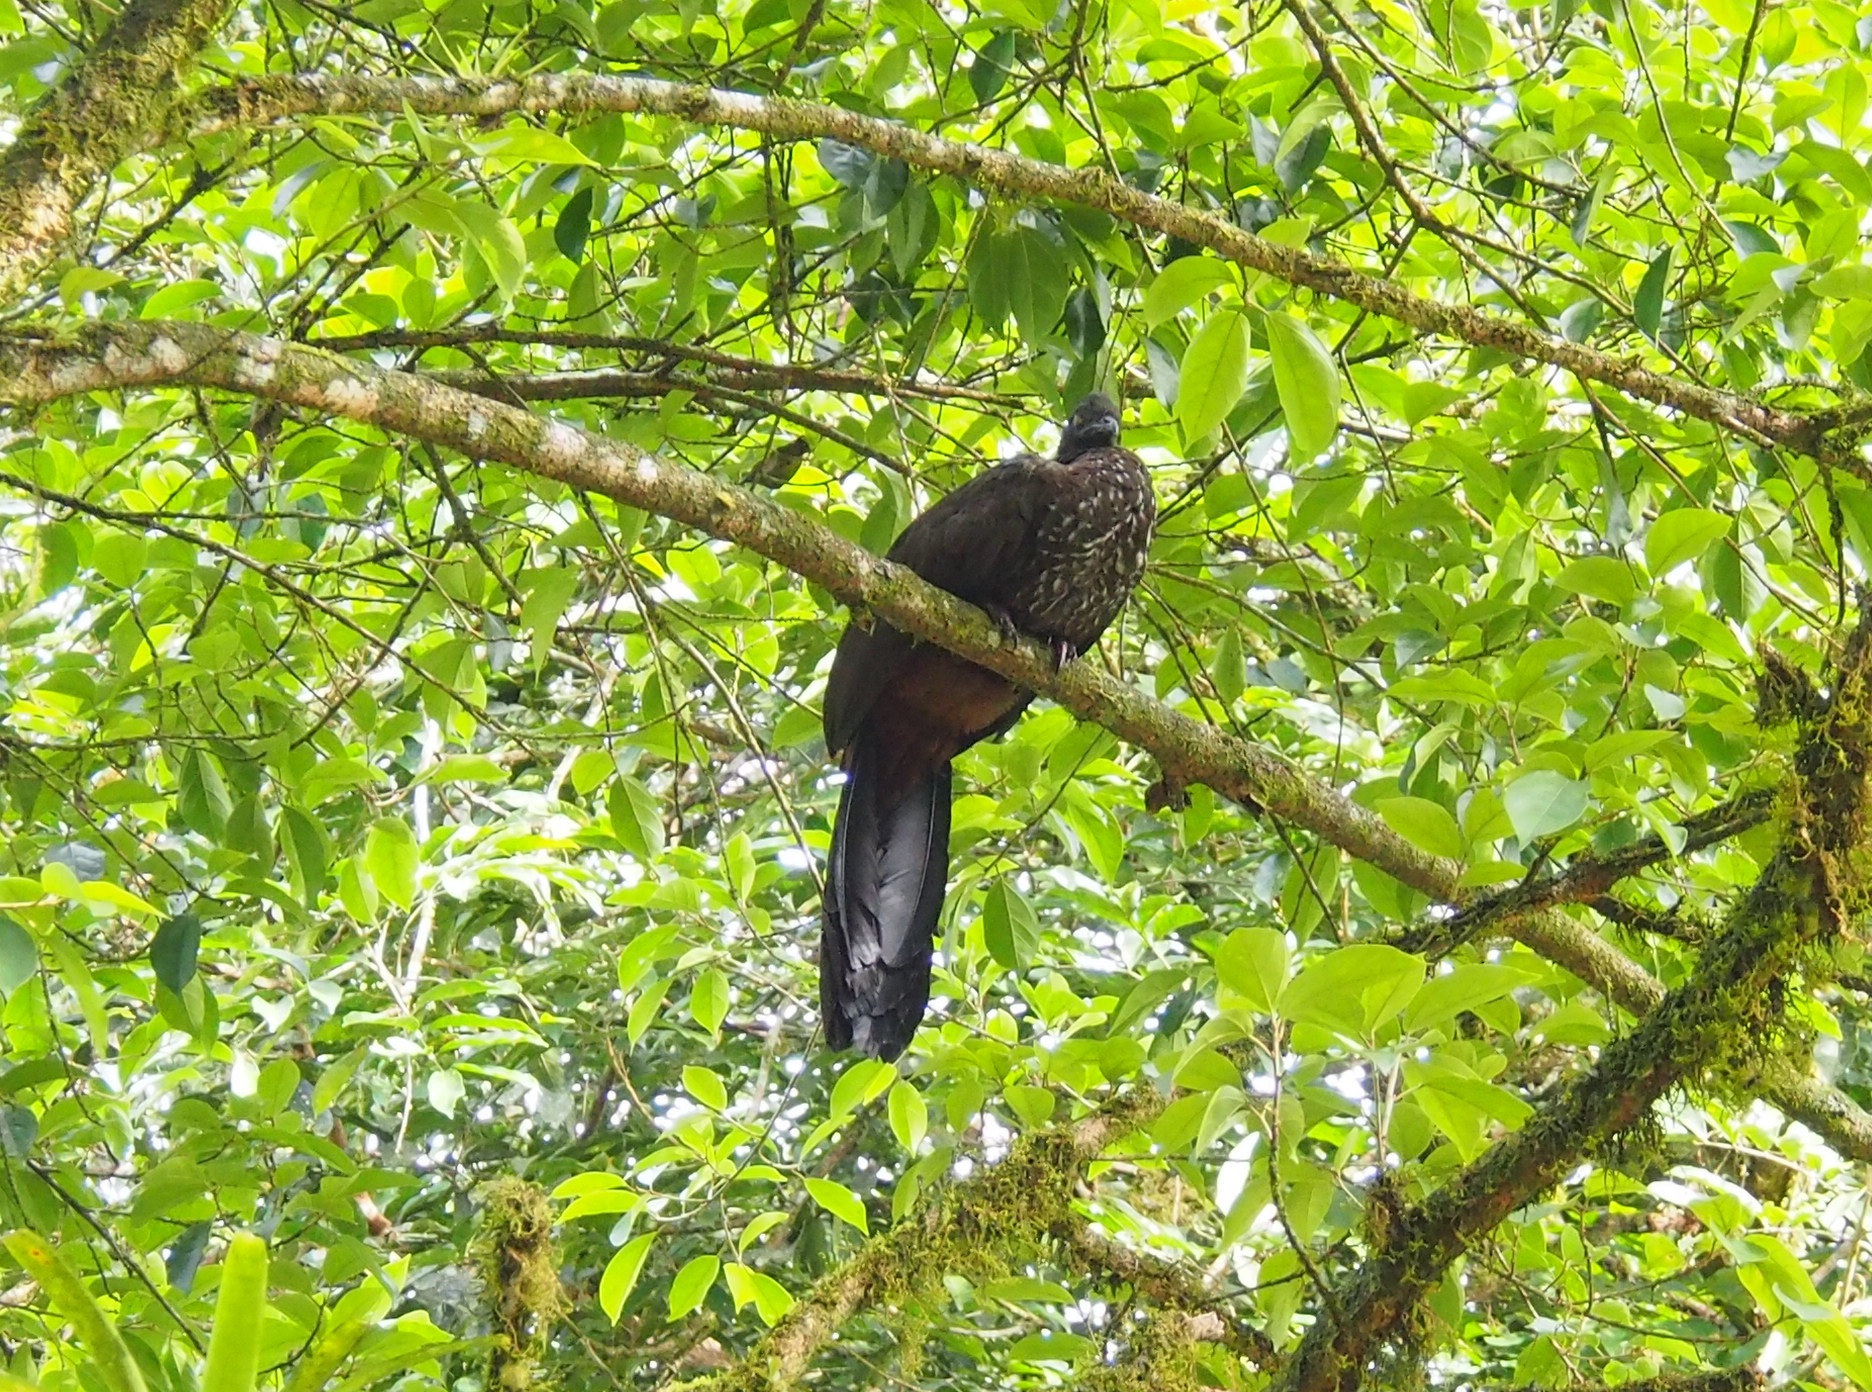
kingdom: Animalia
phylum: Chordata
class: Aves
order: Galliformes
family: Cracidae
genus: Penelope
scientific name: Penelope purpurascens
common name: Crested guan
